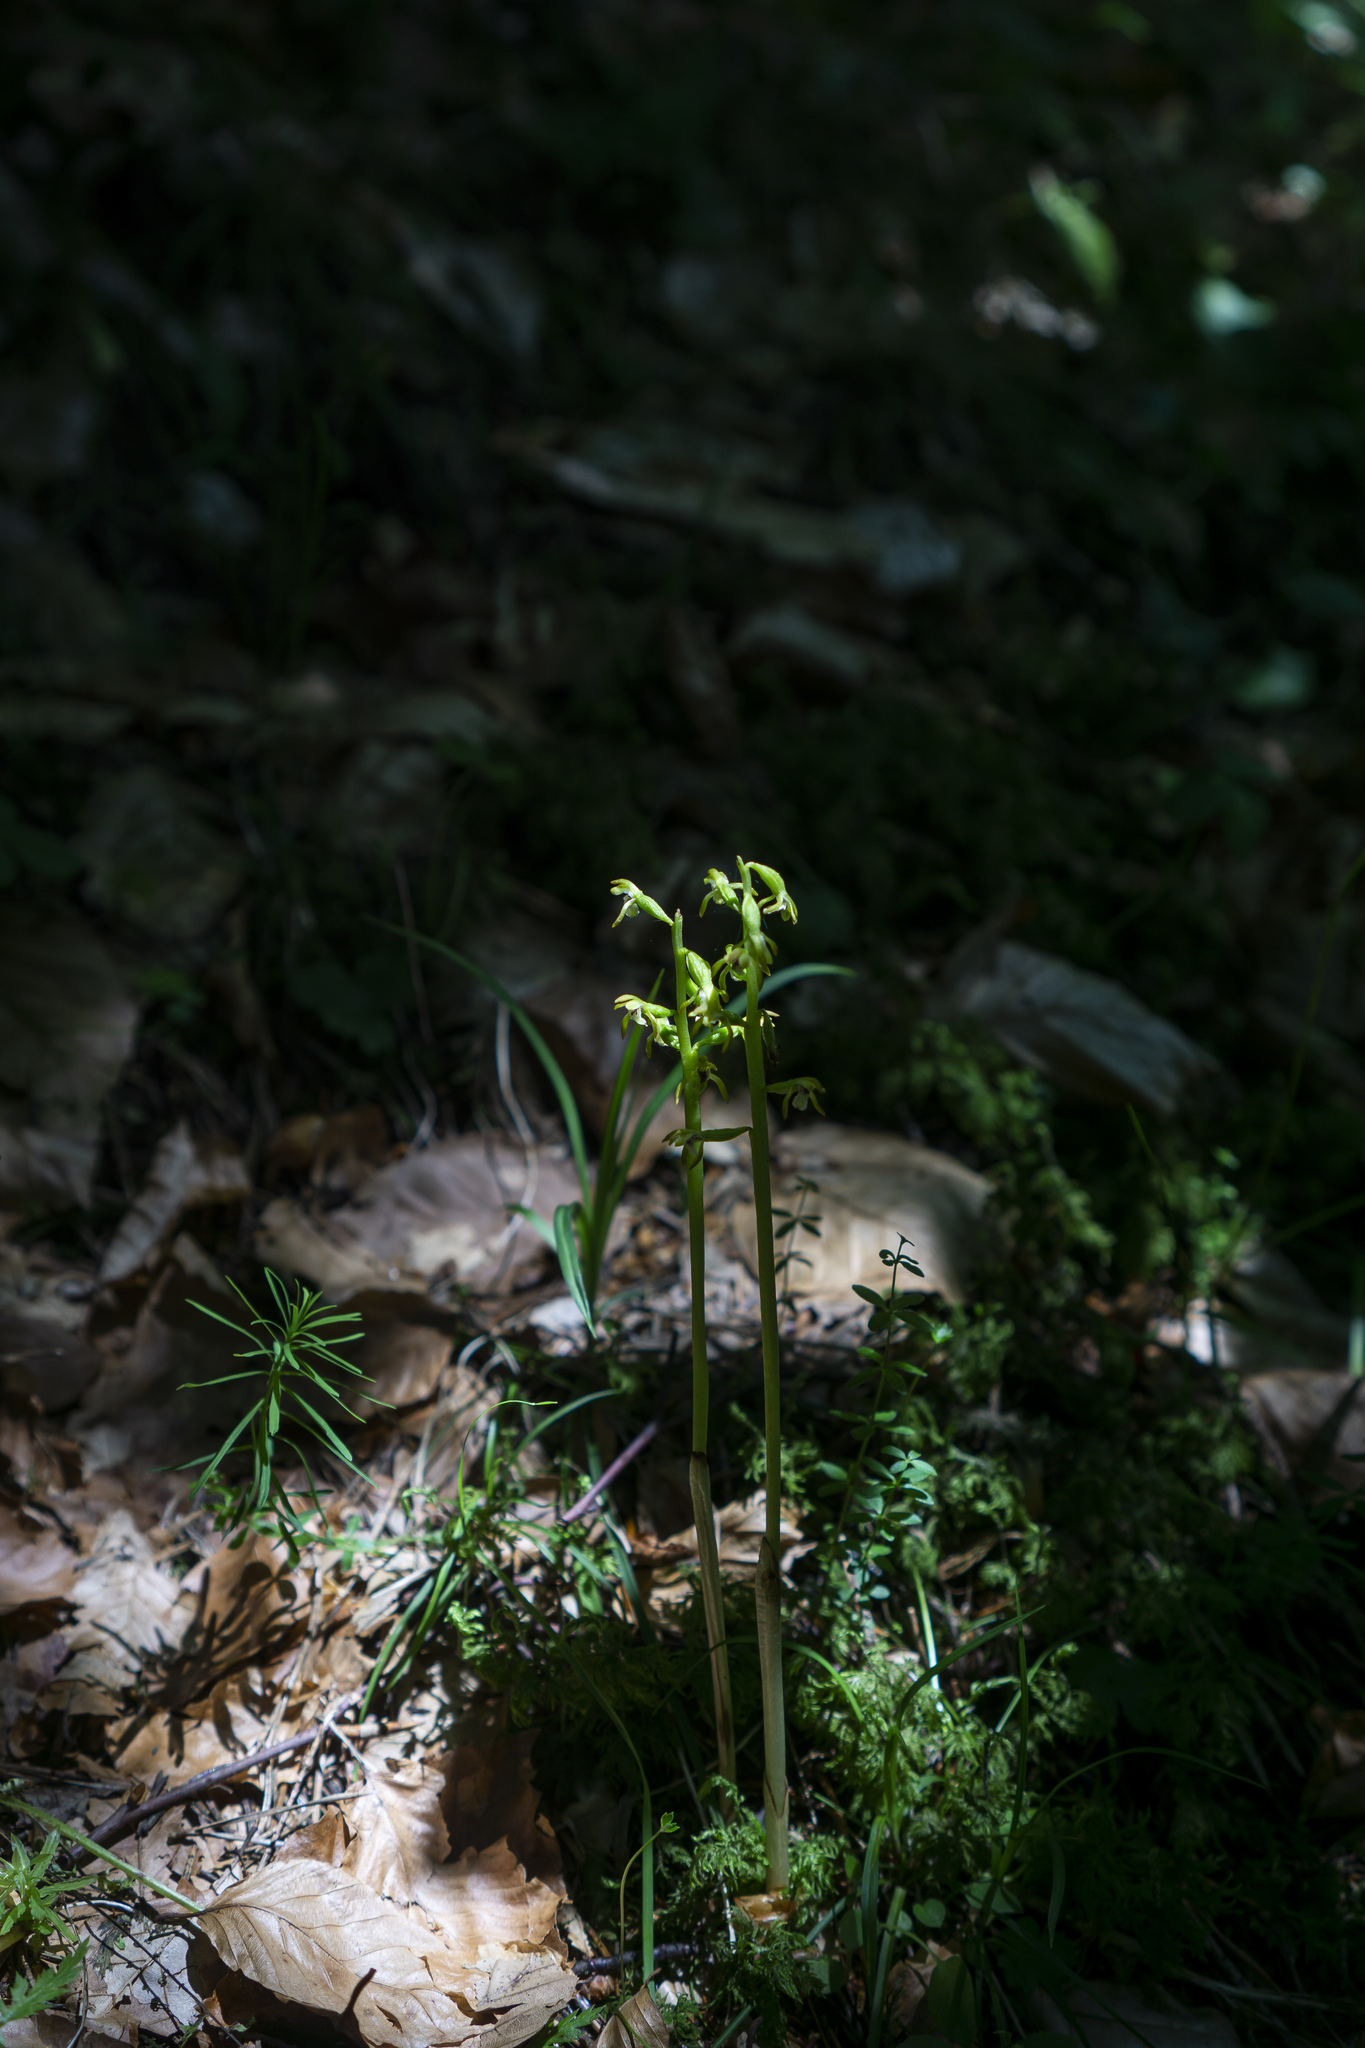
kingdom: Plantae
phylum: Tracheophyta
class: Liliopsida
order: Asparagales
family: Orchidaceae
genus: Corallorhiza
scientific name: Corallorhiza trifida
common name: Yellow coralroot
